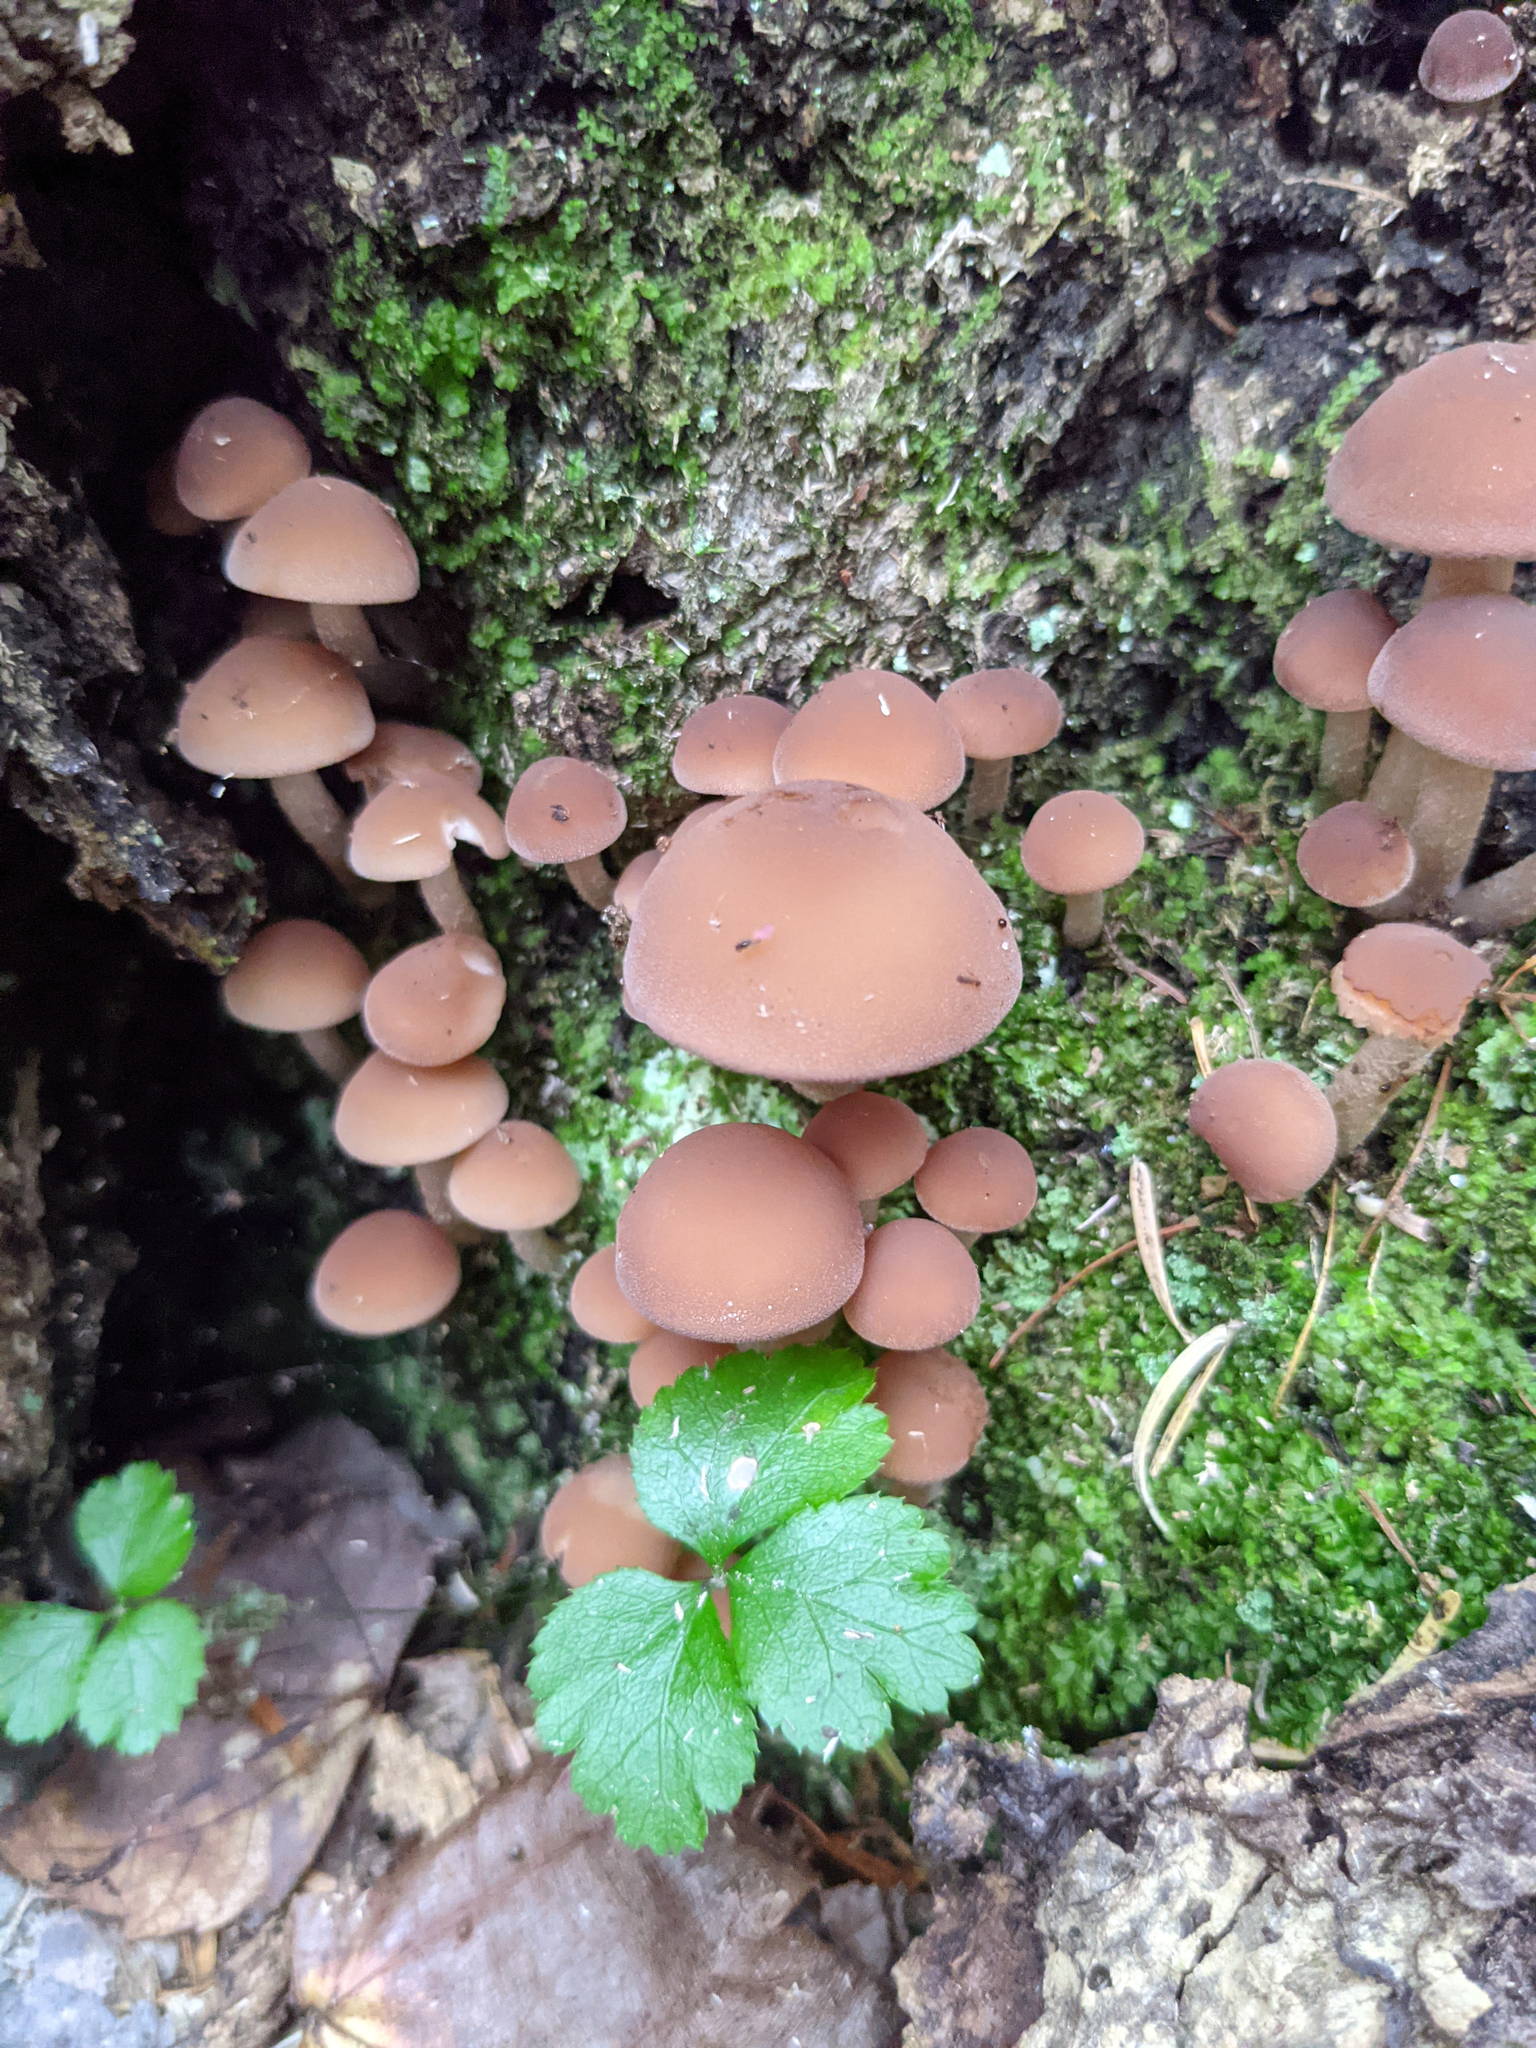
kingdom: Plantae
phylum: Tracheophyta
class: Magnoliopsida
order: Ranunculales
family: Ranunculaceae
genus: Coptis
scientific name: Coptis trifolia
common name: Canker-root
